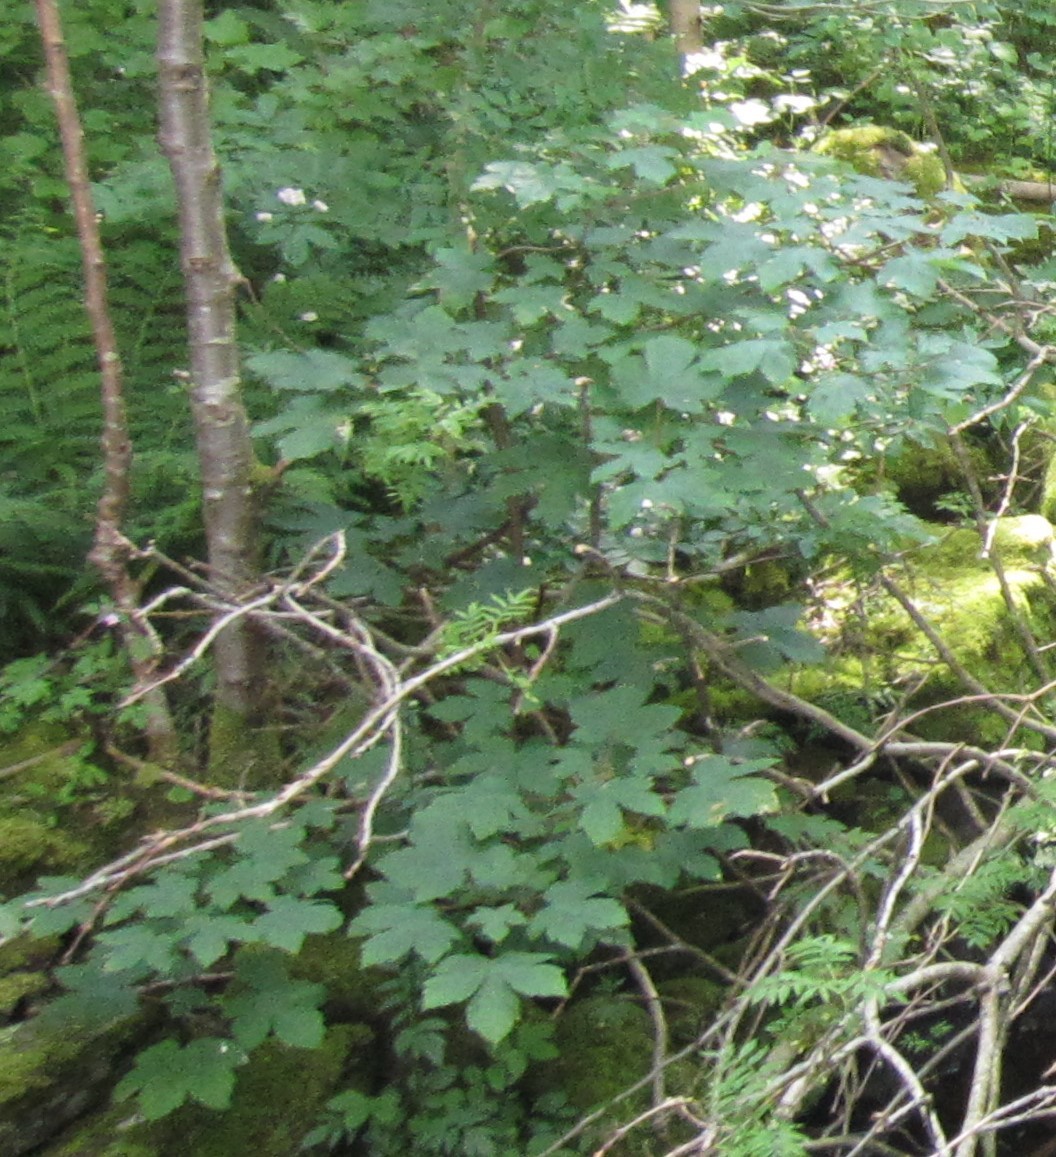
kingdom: Plantae
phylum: Tracheophyta
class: Magnoliopsida
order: Sapindales
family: Sapindaceae
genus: Acer
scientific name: Acer pseudoplatanus
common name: Sycamore
